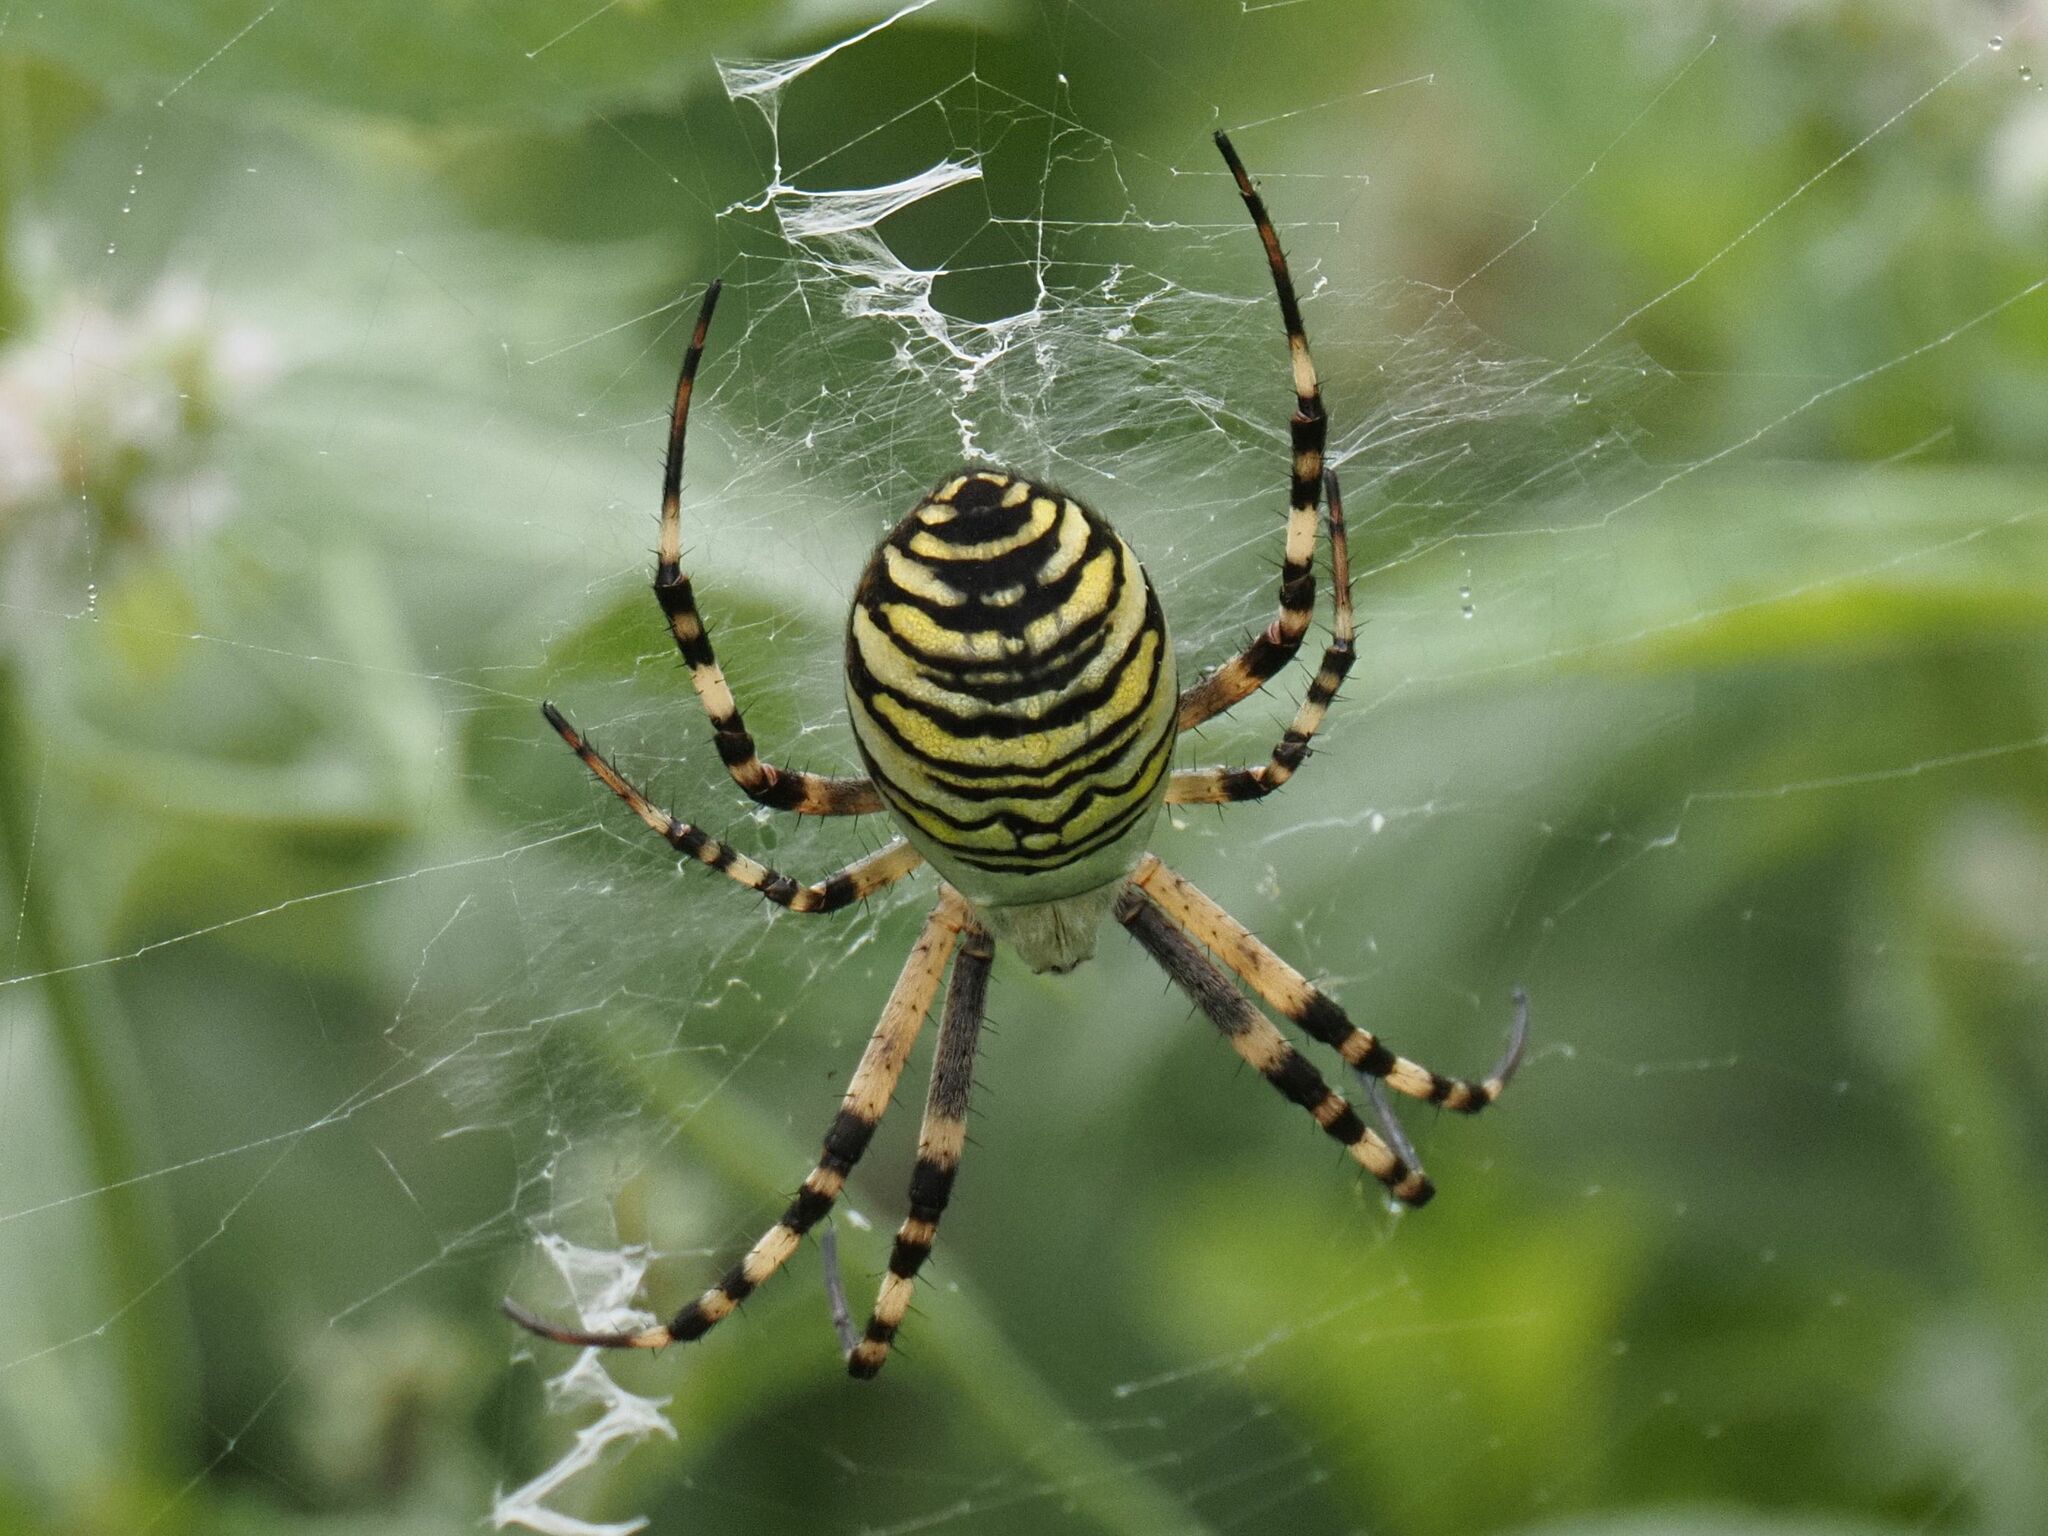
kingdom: Animalia
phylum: Arthropoda
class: Arachnida
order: Araneae
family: Araneidae
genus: Argiope
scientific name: Argiope bruennichi
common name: Wasp spider
